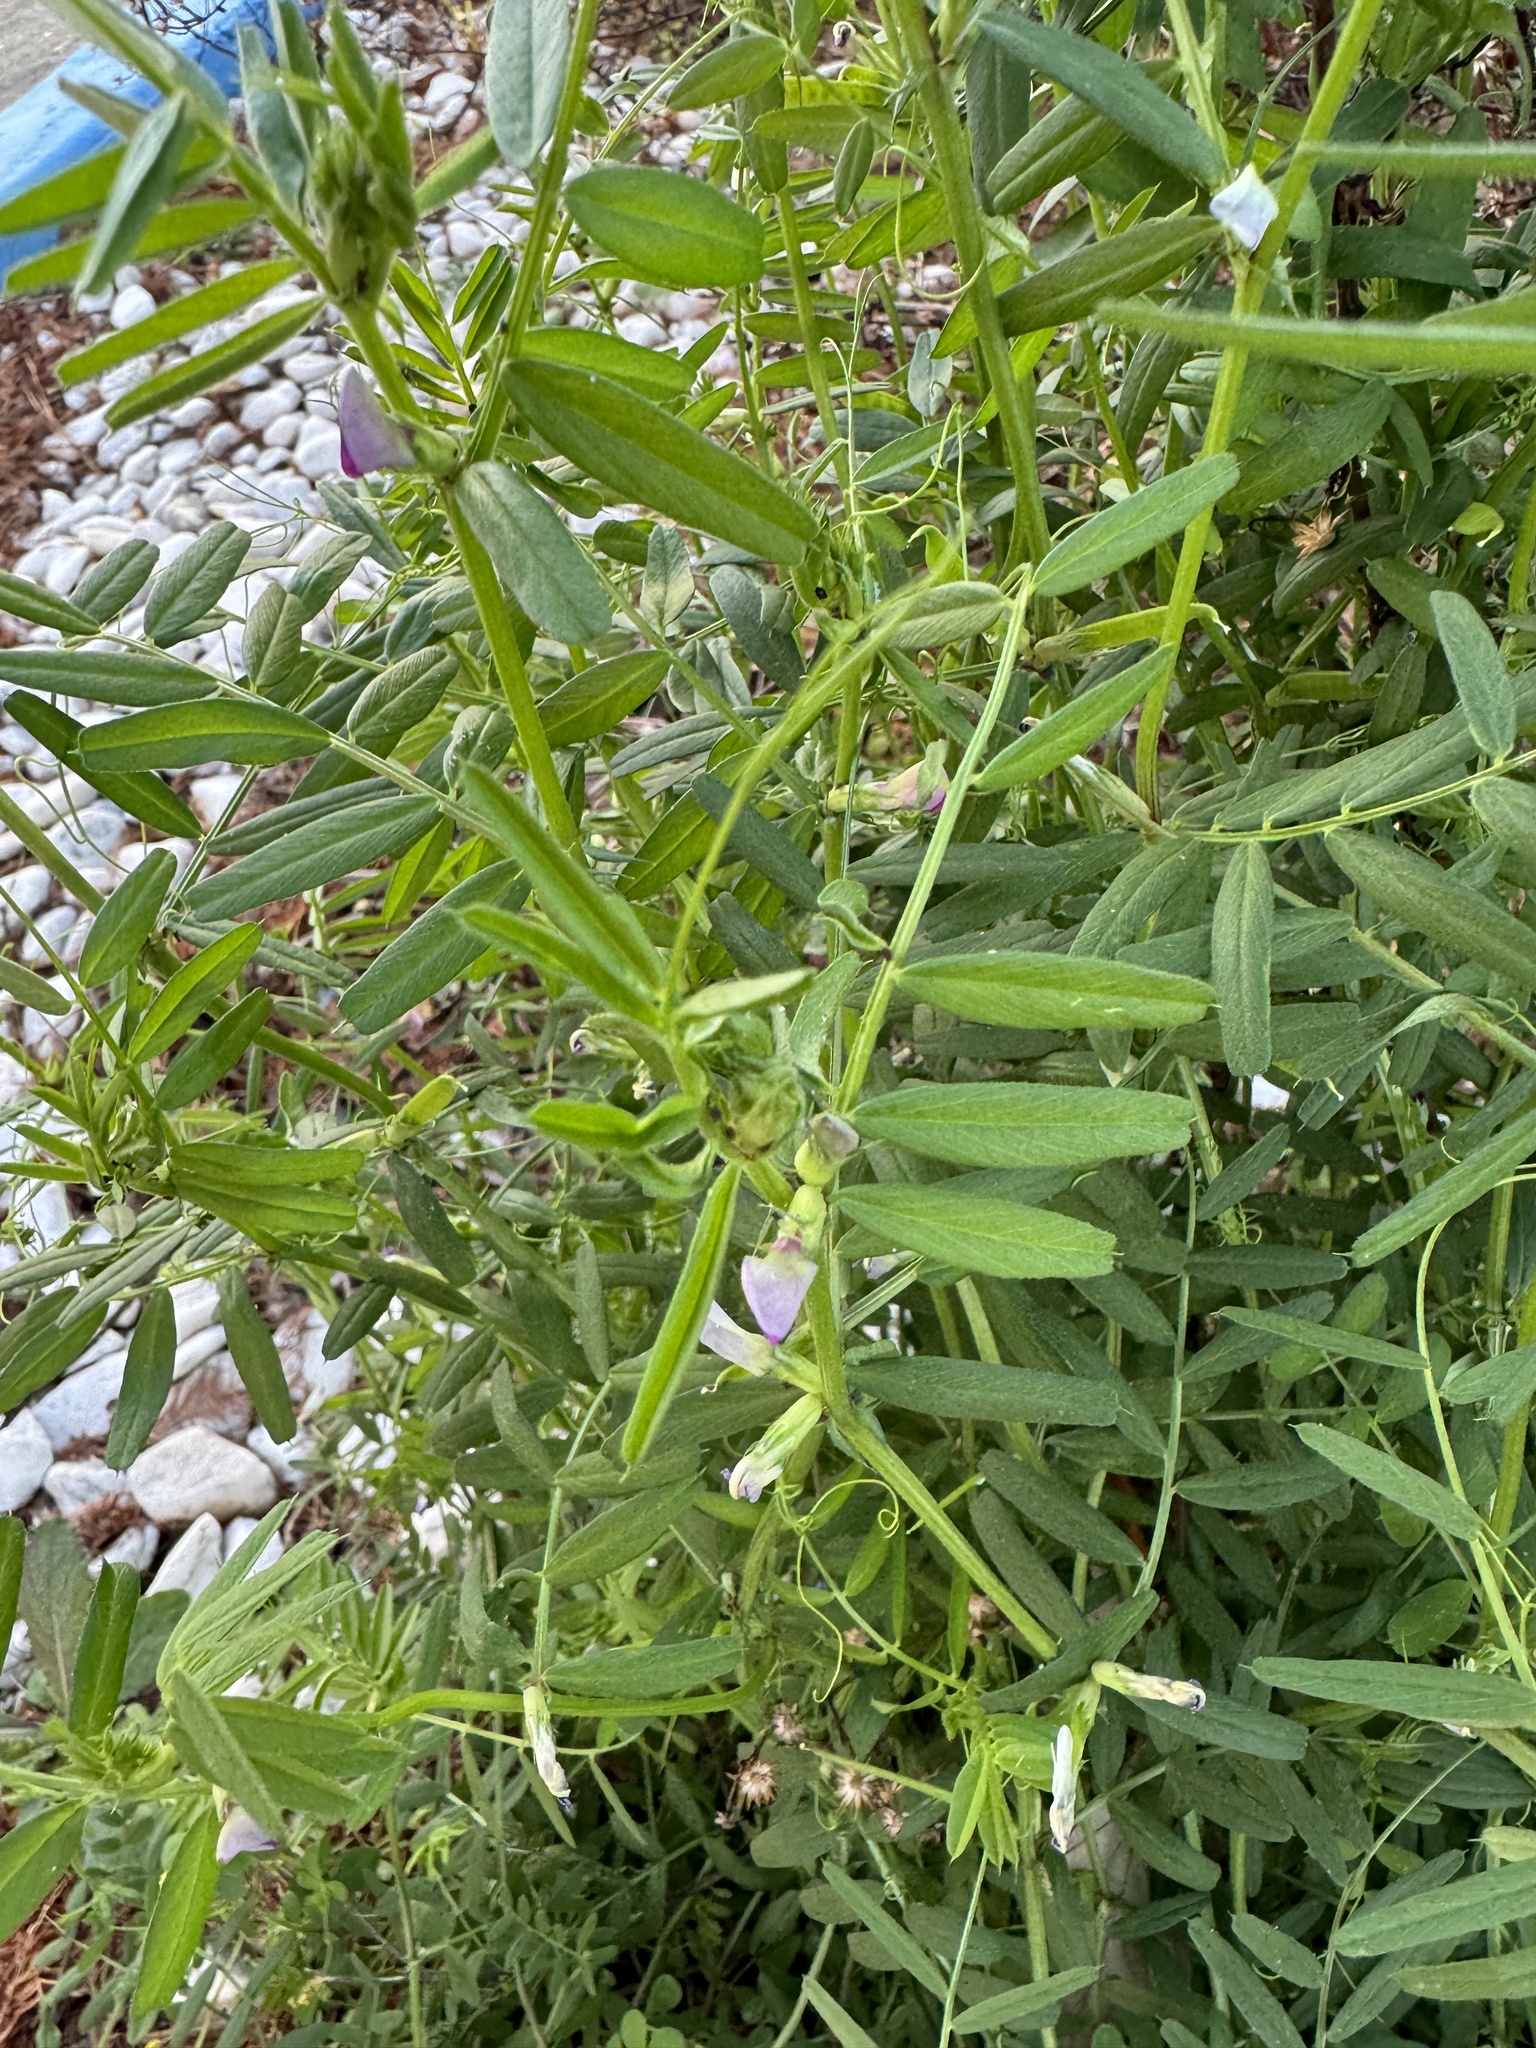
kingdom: Plantae
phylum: Tracheophyta
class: Magnoliopsida
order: Fabales
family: Fabaceae
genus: Vicia
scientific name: Vicia sativa
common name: Garden vetch
